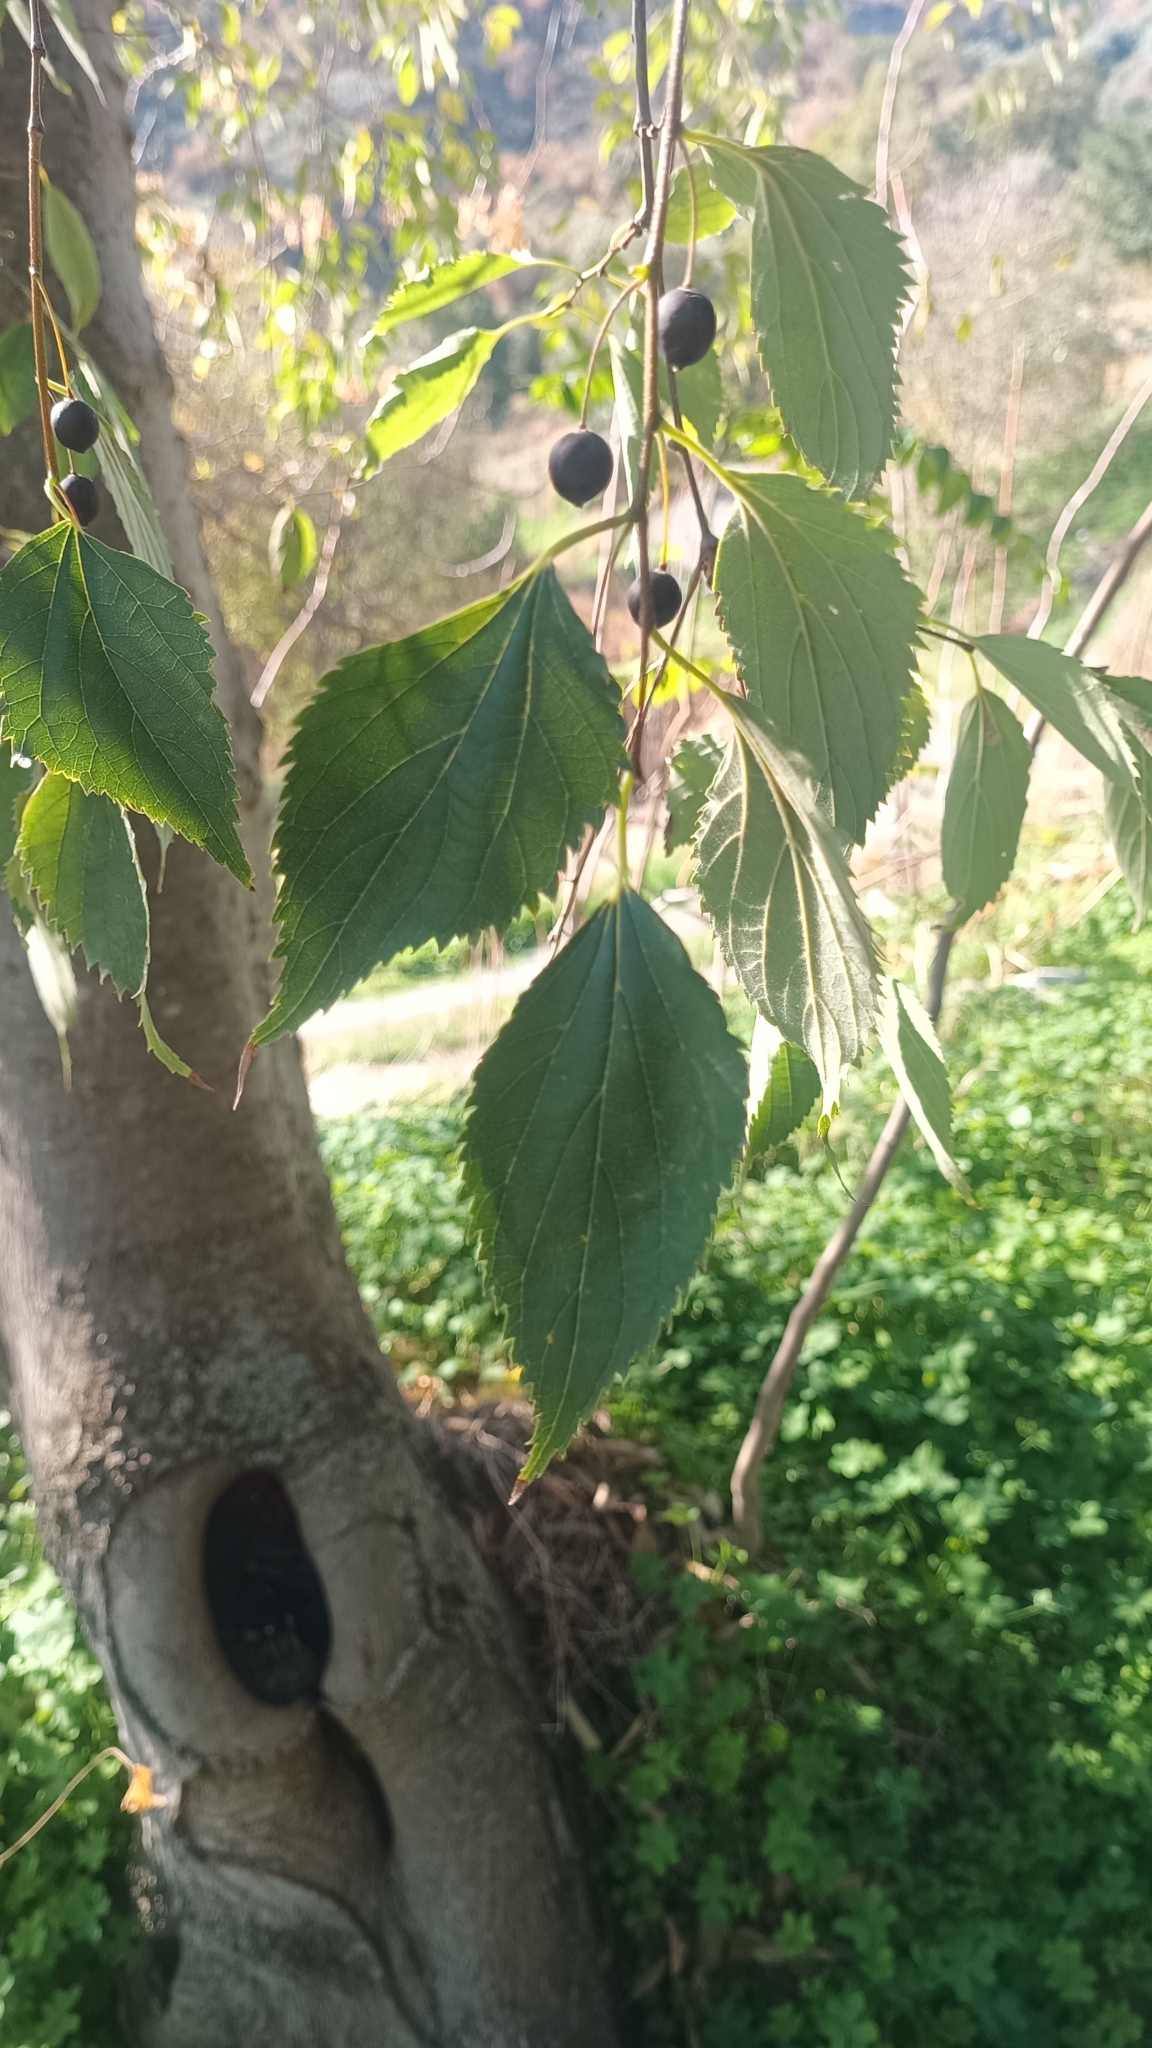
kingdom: Plantae
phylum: Tracheophyta
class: Magnoliopsida
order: Rosales
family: Cannabaceae
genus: Celtis
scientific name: Celtis australis
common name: European hackberry
